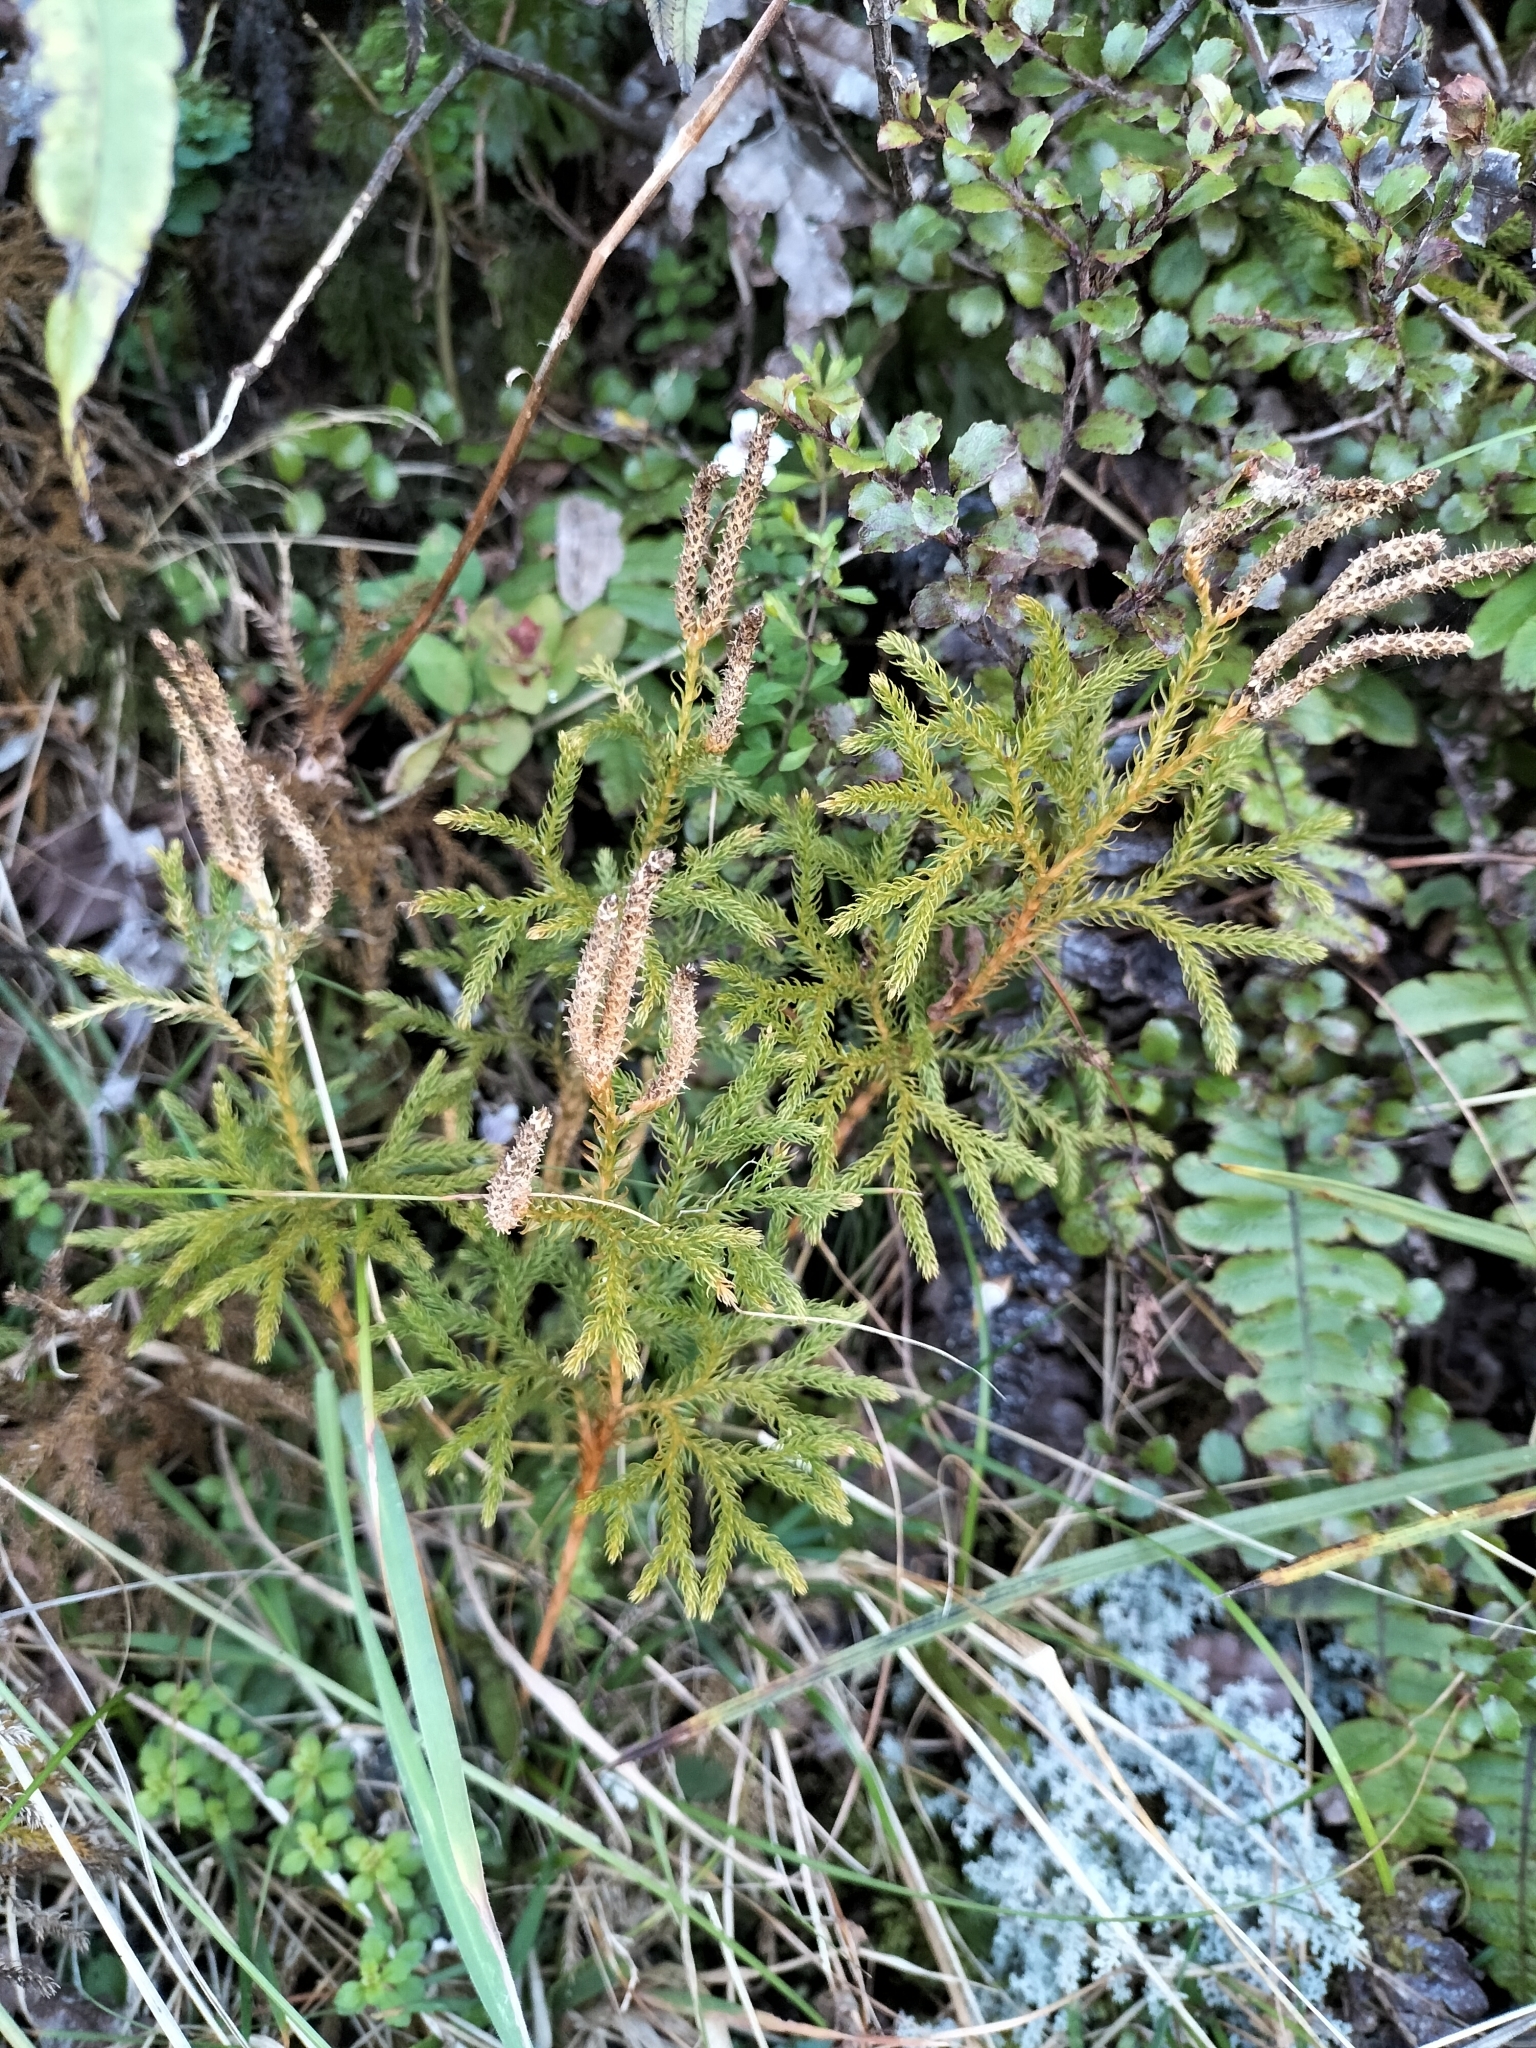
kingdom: Plantae
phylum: Tracheophyta
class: Lycopodiopsida
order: Lycopodiales
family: Lycopodiaceae
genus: Austrolycopodium
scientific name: Austrolycopodium fastigiatum
